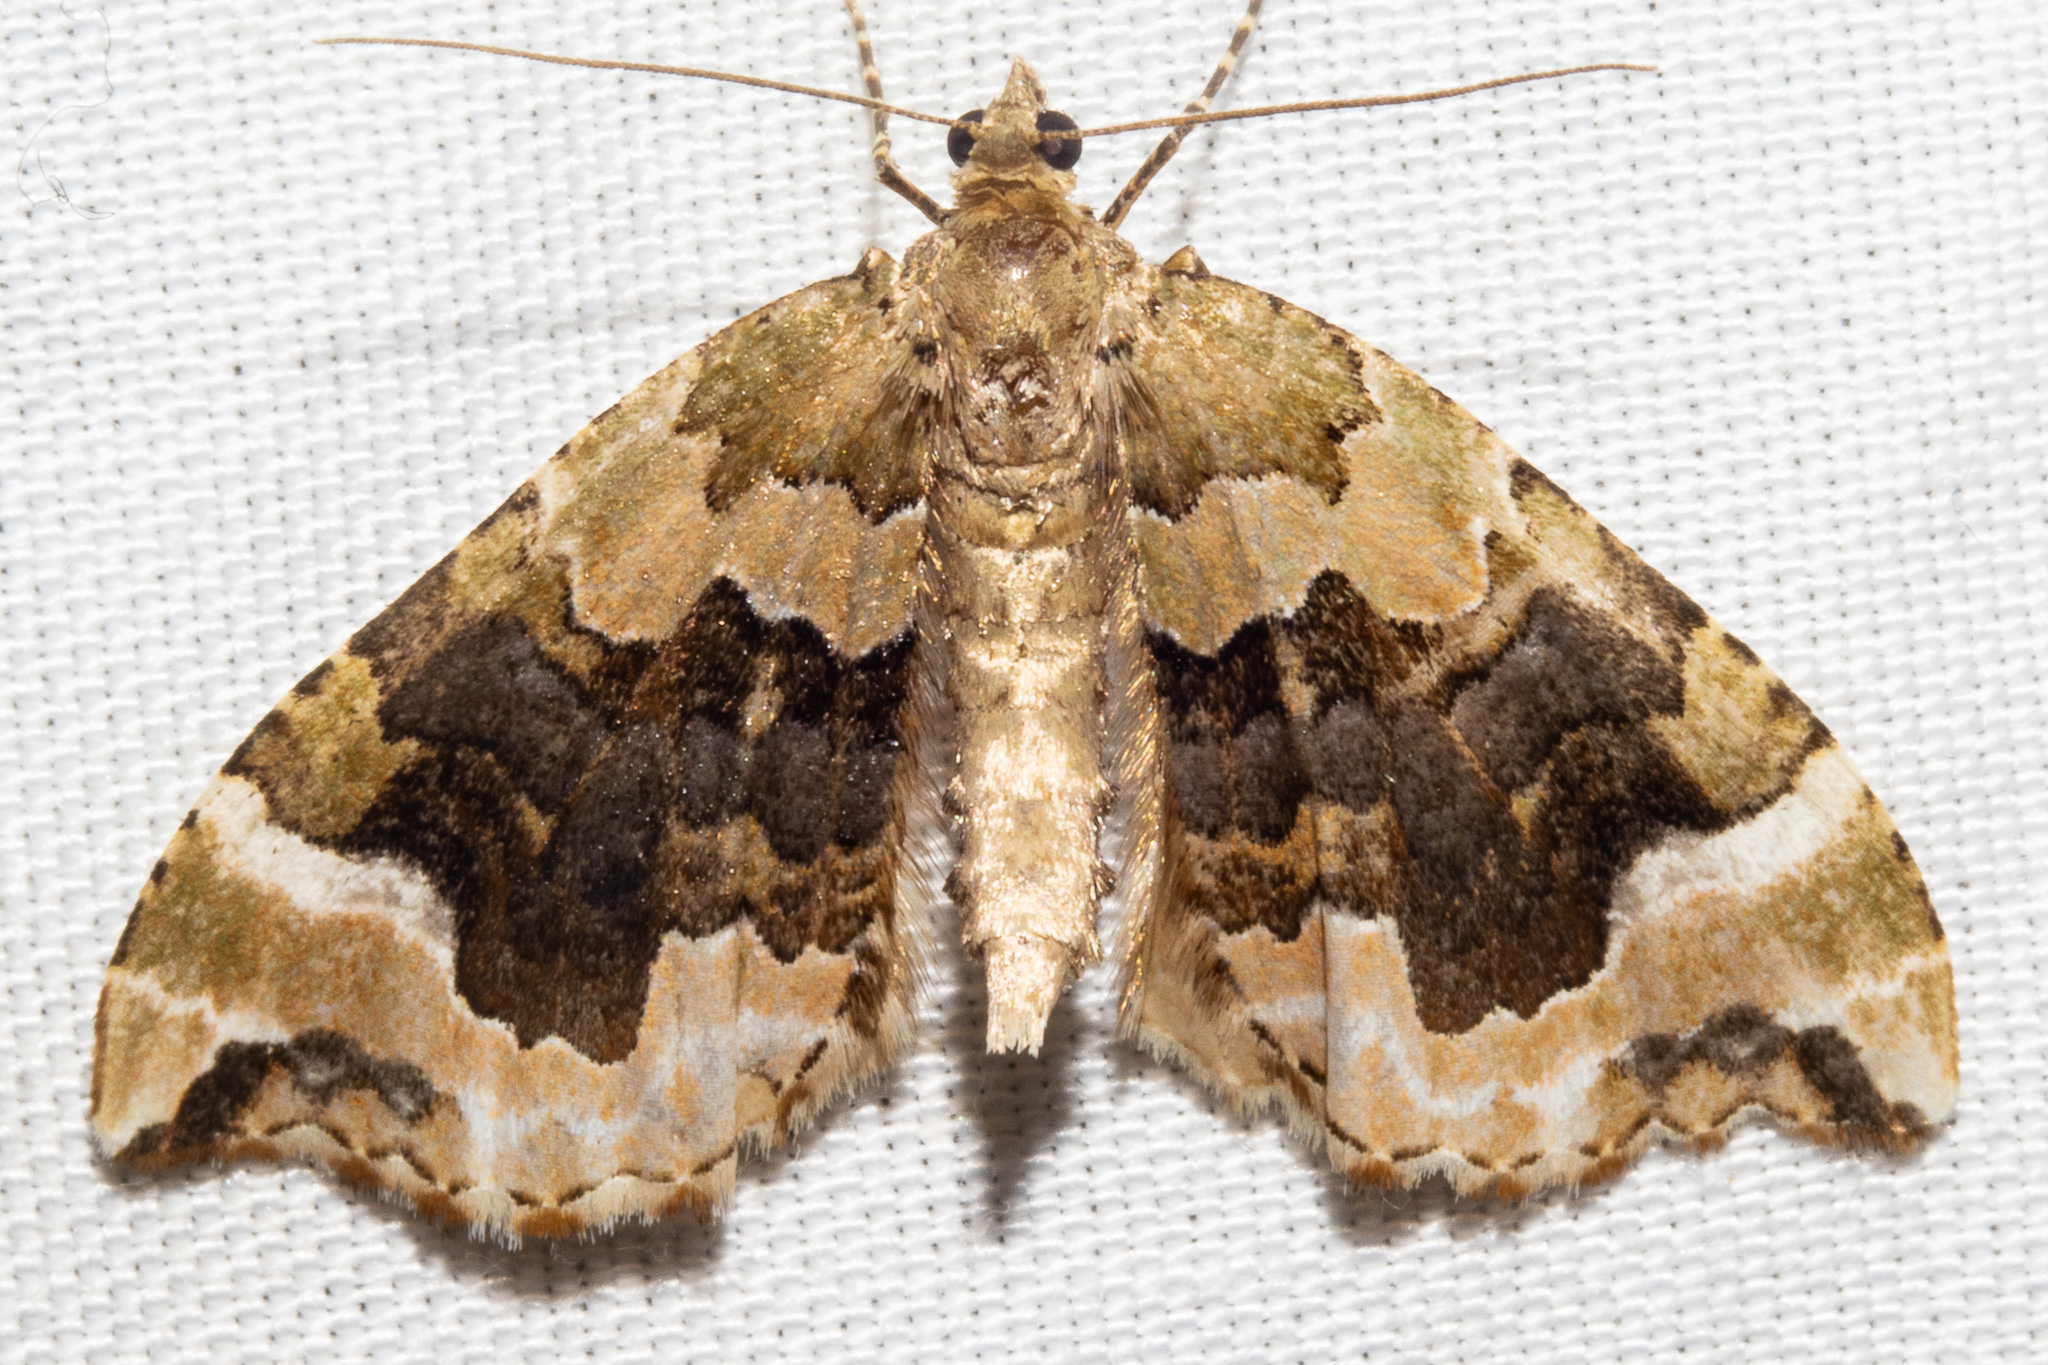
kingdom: Animalia
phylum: Arthropoda
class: Insecta
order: Lepidoptera
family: Geometridae
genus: Hydriomena
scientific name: Hydriomena purpurifera
